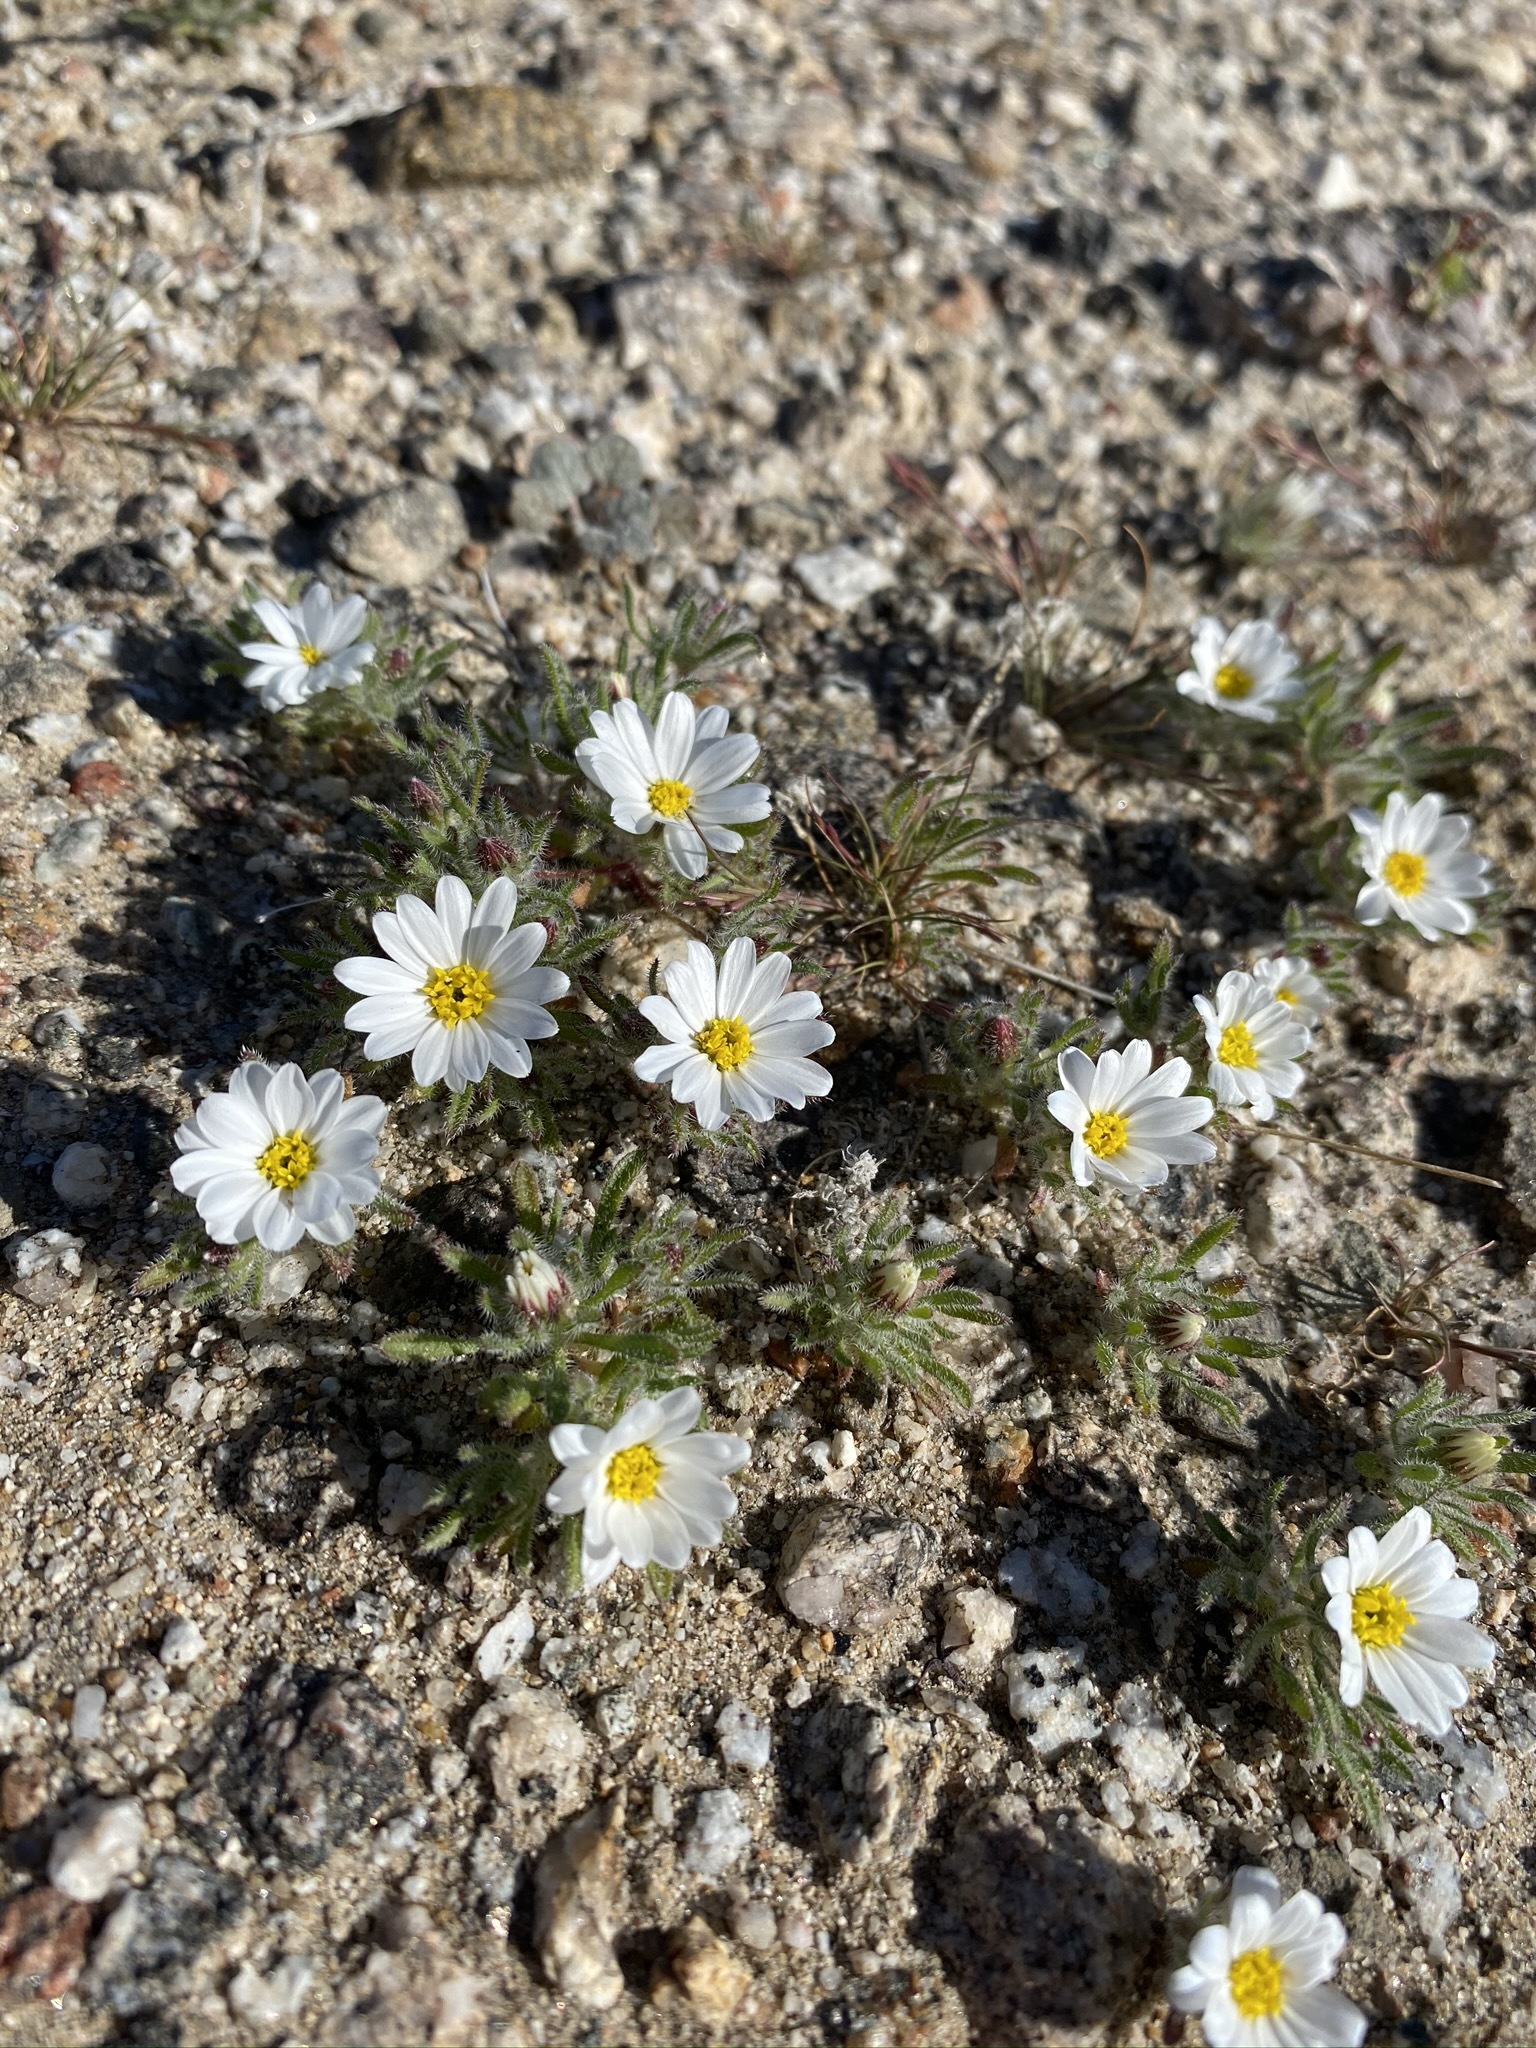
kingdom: Plantae
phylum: Tracheophyta
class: Magnoliopsida
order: Asterales
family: Asteraceae
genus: Monoptilon
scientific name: Monoptilon bellioides
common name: Bristly desertstar
